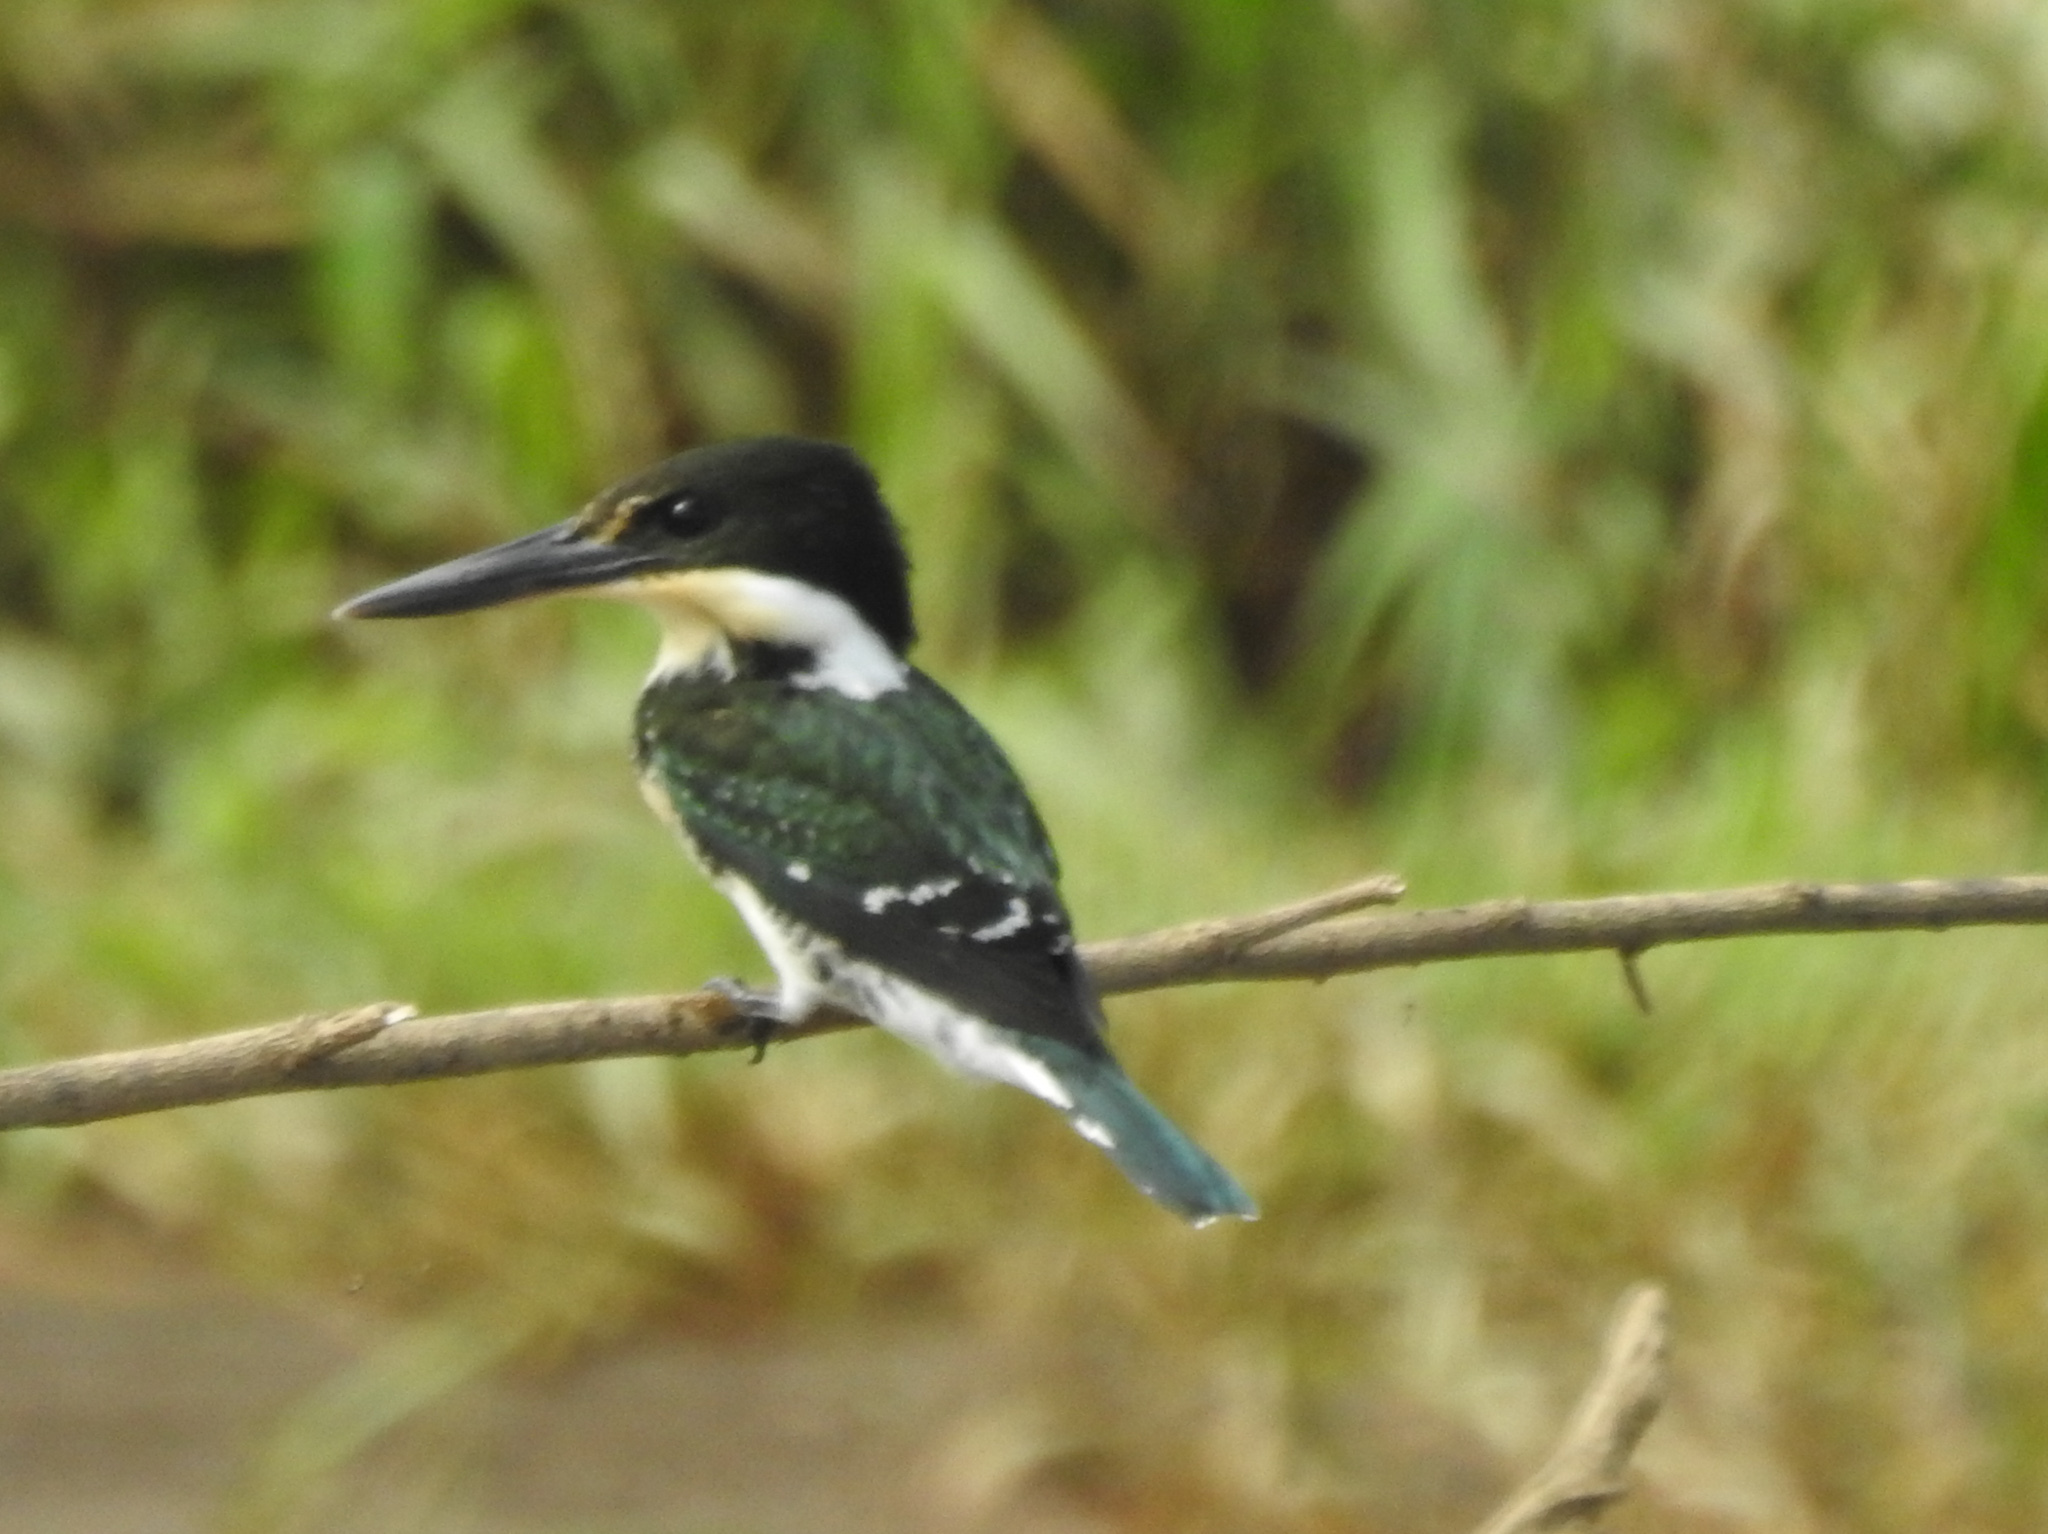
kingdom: Animalia
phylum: Chordata
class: Aves
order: Coraciiformes
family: Alcedinidae
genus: Chloroceryle
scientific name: Chloroceryle americana
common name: Green kingfisher
